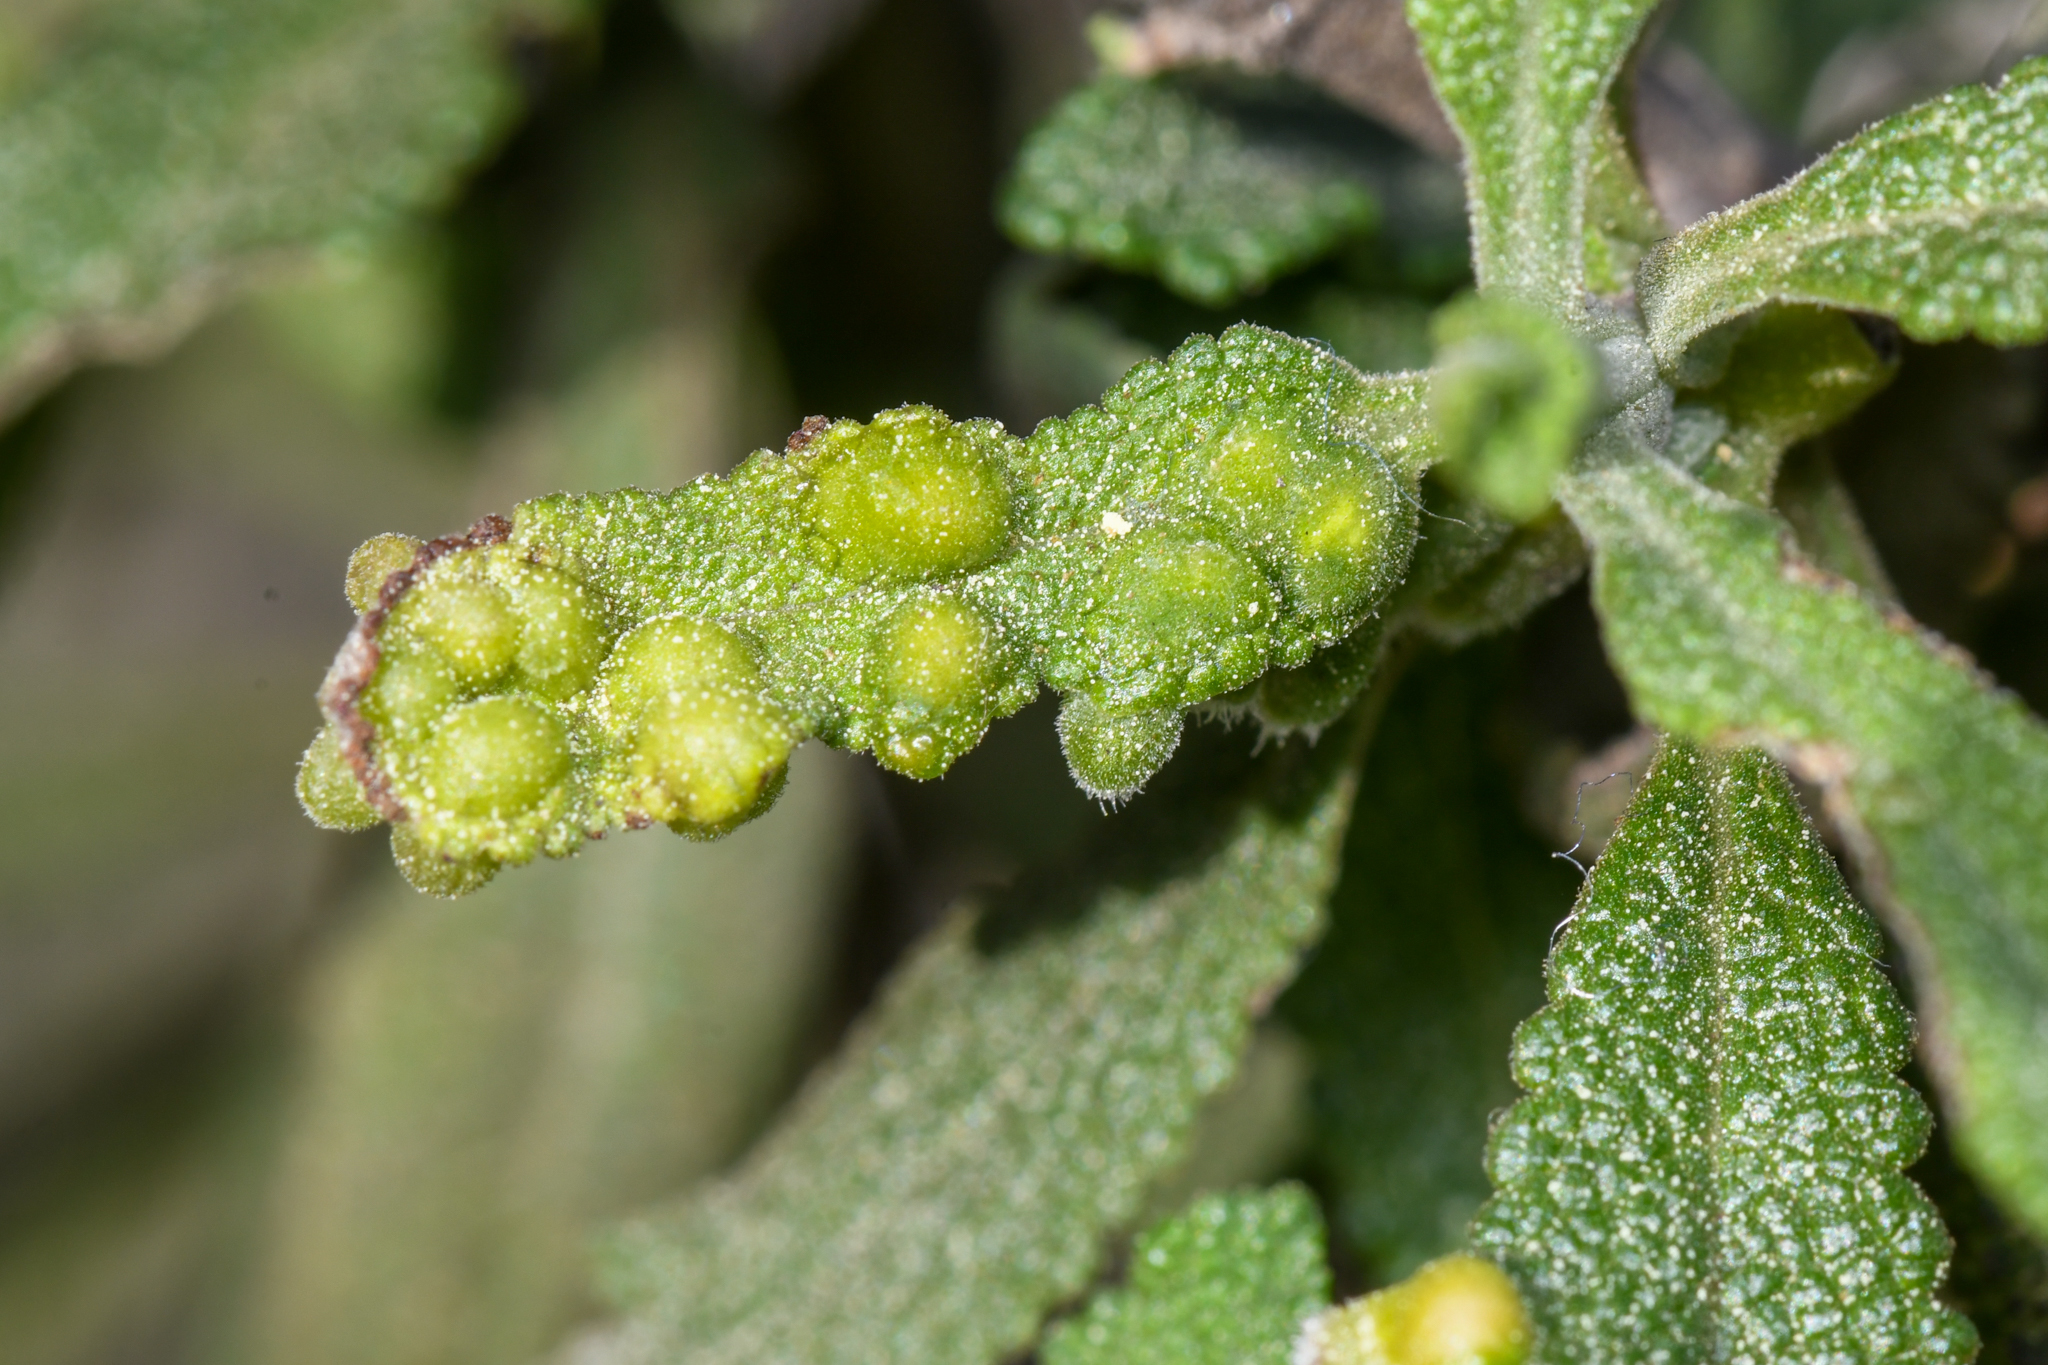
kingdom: Animalia
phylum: Arthropoda
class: Insecta
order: Diptera
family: Cecidomyiidae
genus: Rhopalomyia
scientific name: Rhopalomyia audibertiae
